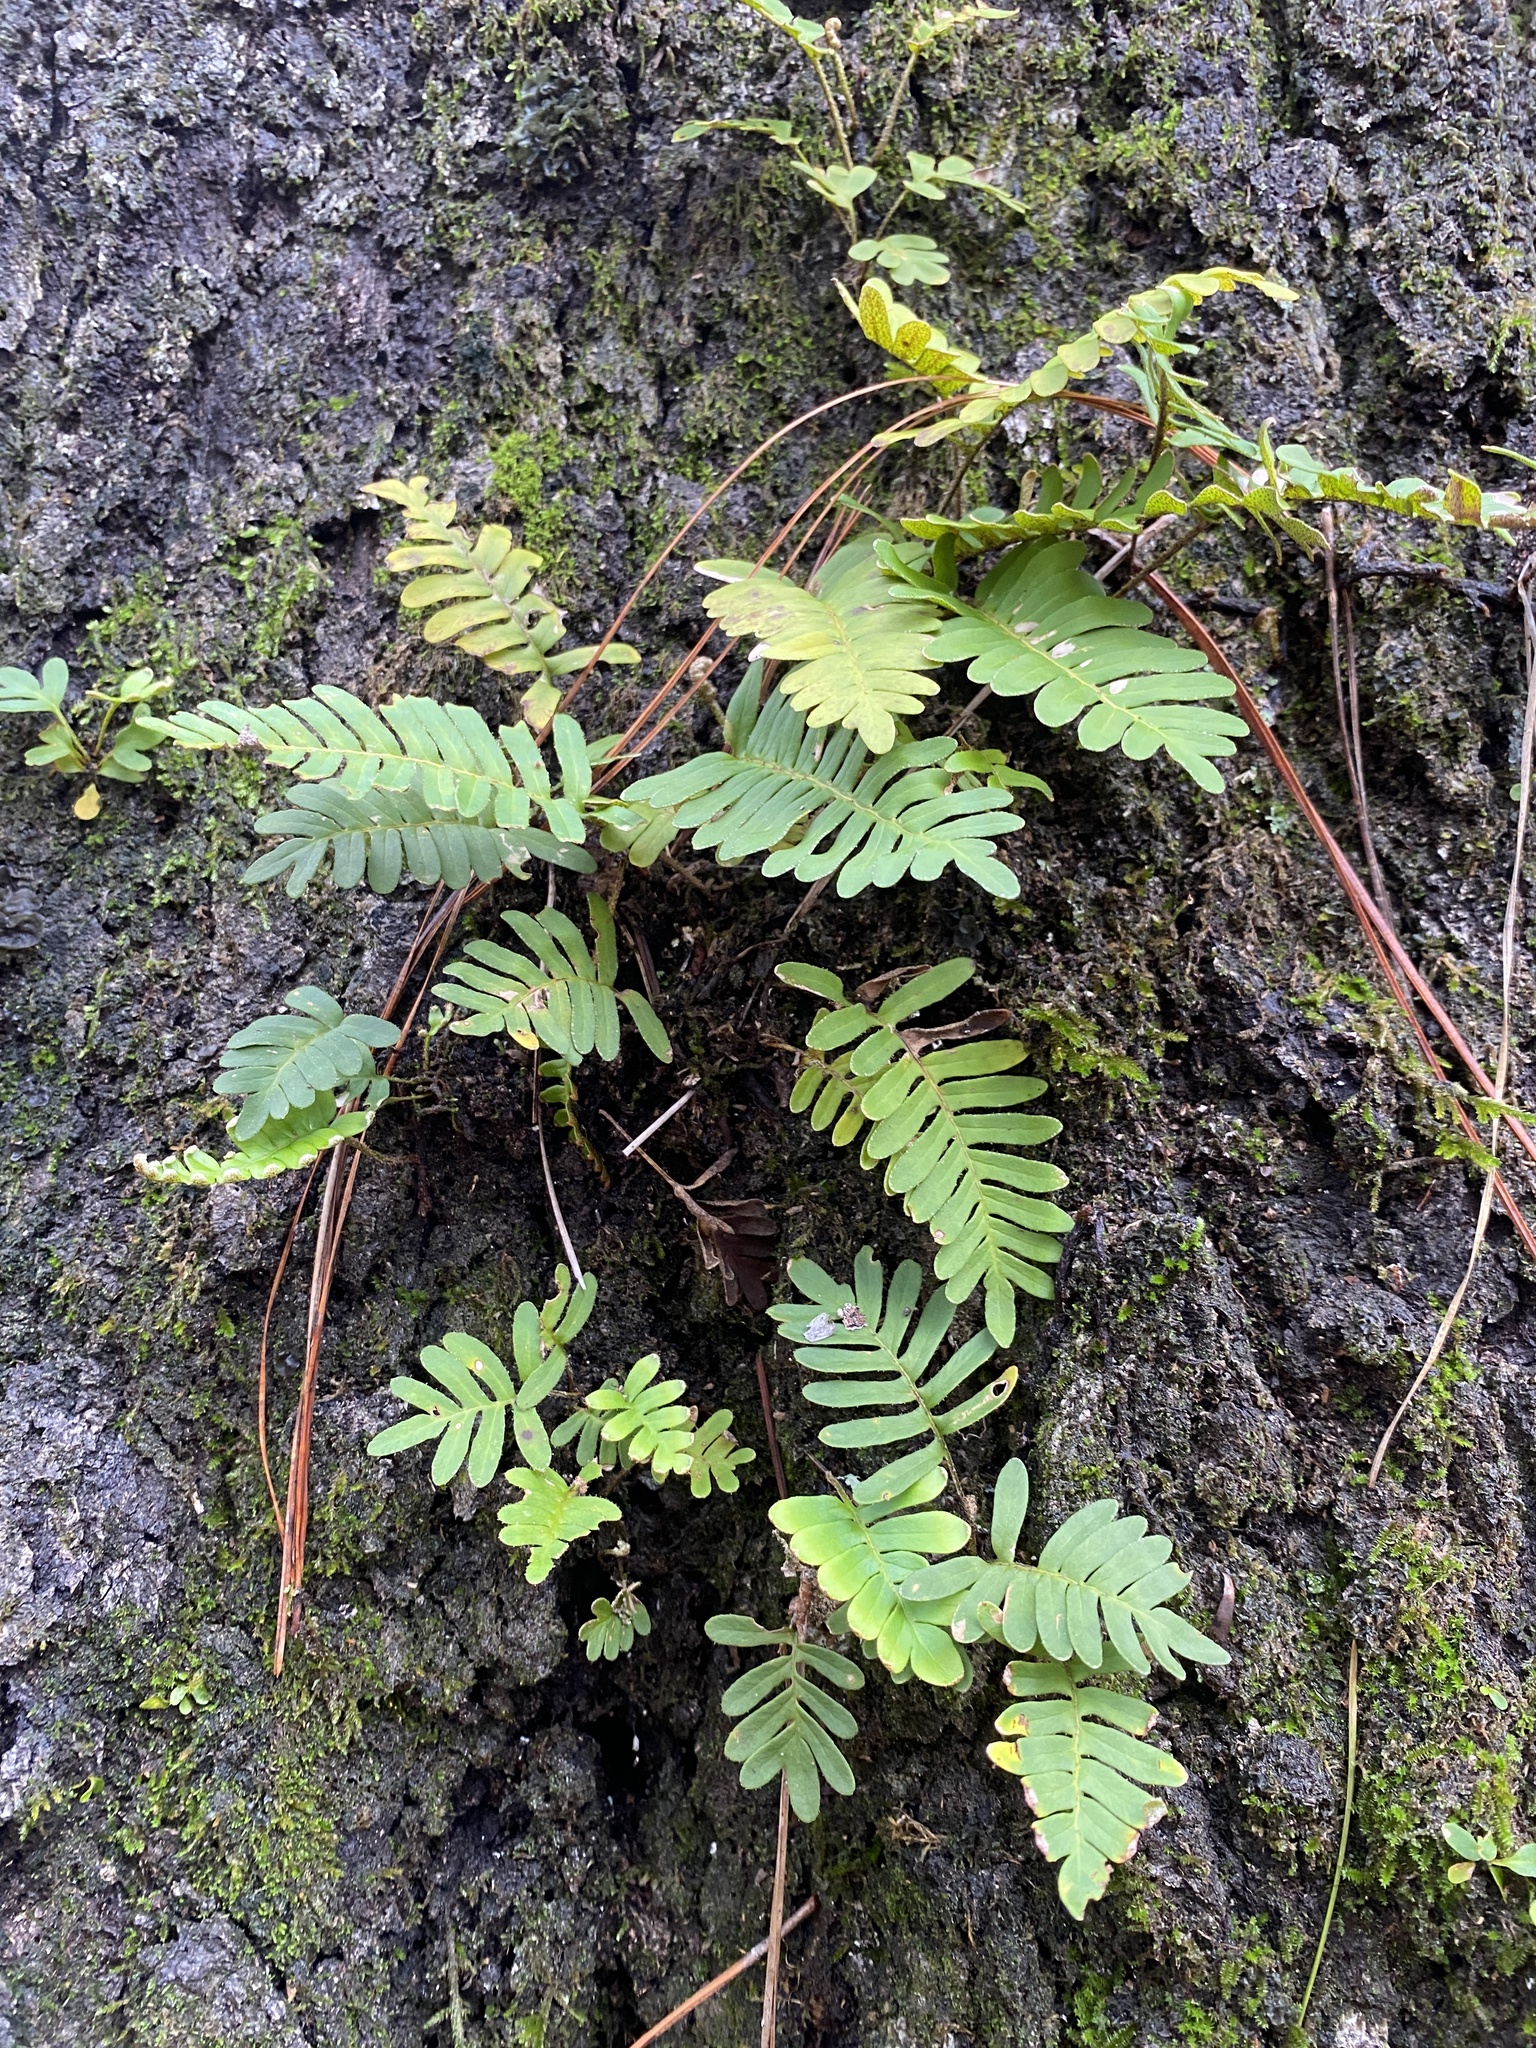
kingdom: Plantae
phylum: Tracheophyta
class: Polypodiopsida
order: Polypodiales
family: Polypodiaceae
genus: Pleopeltis
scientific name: Pleopeltis michauxiana
